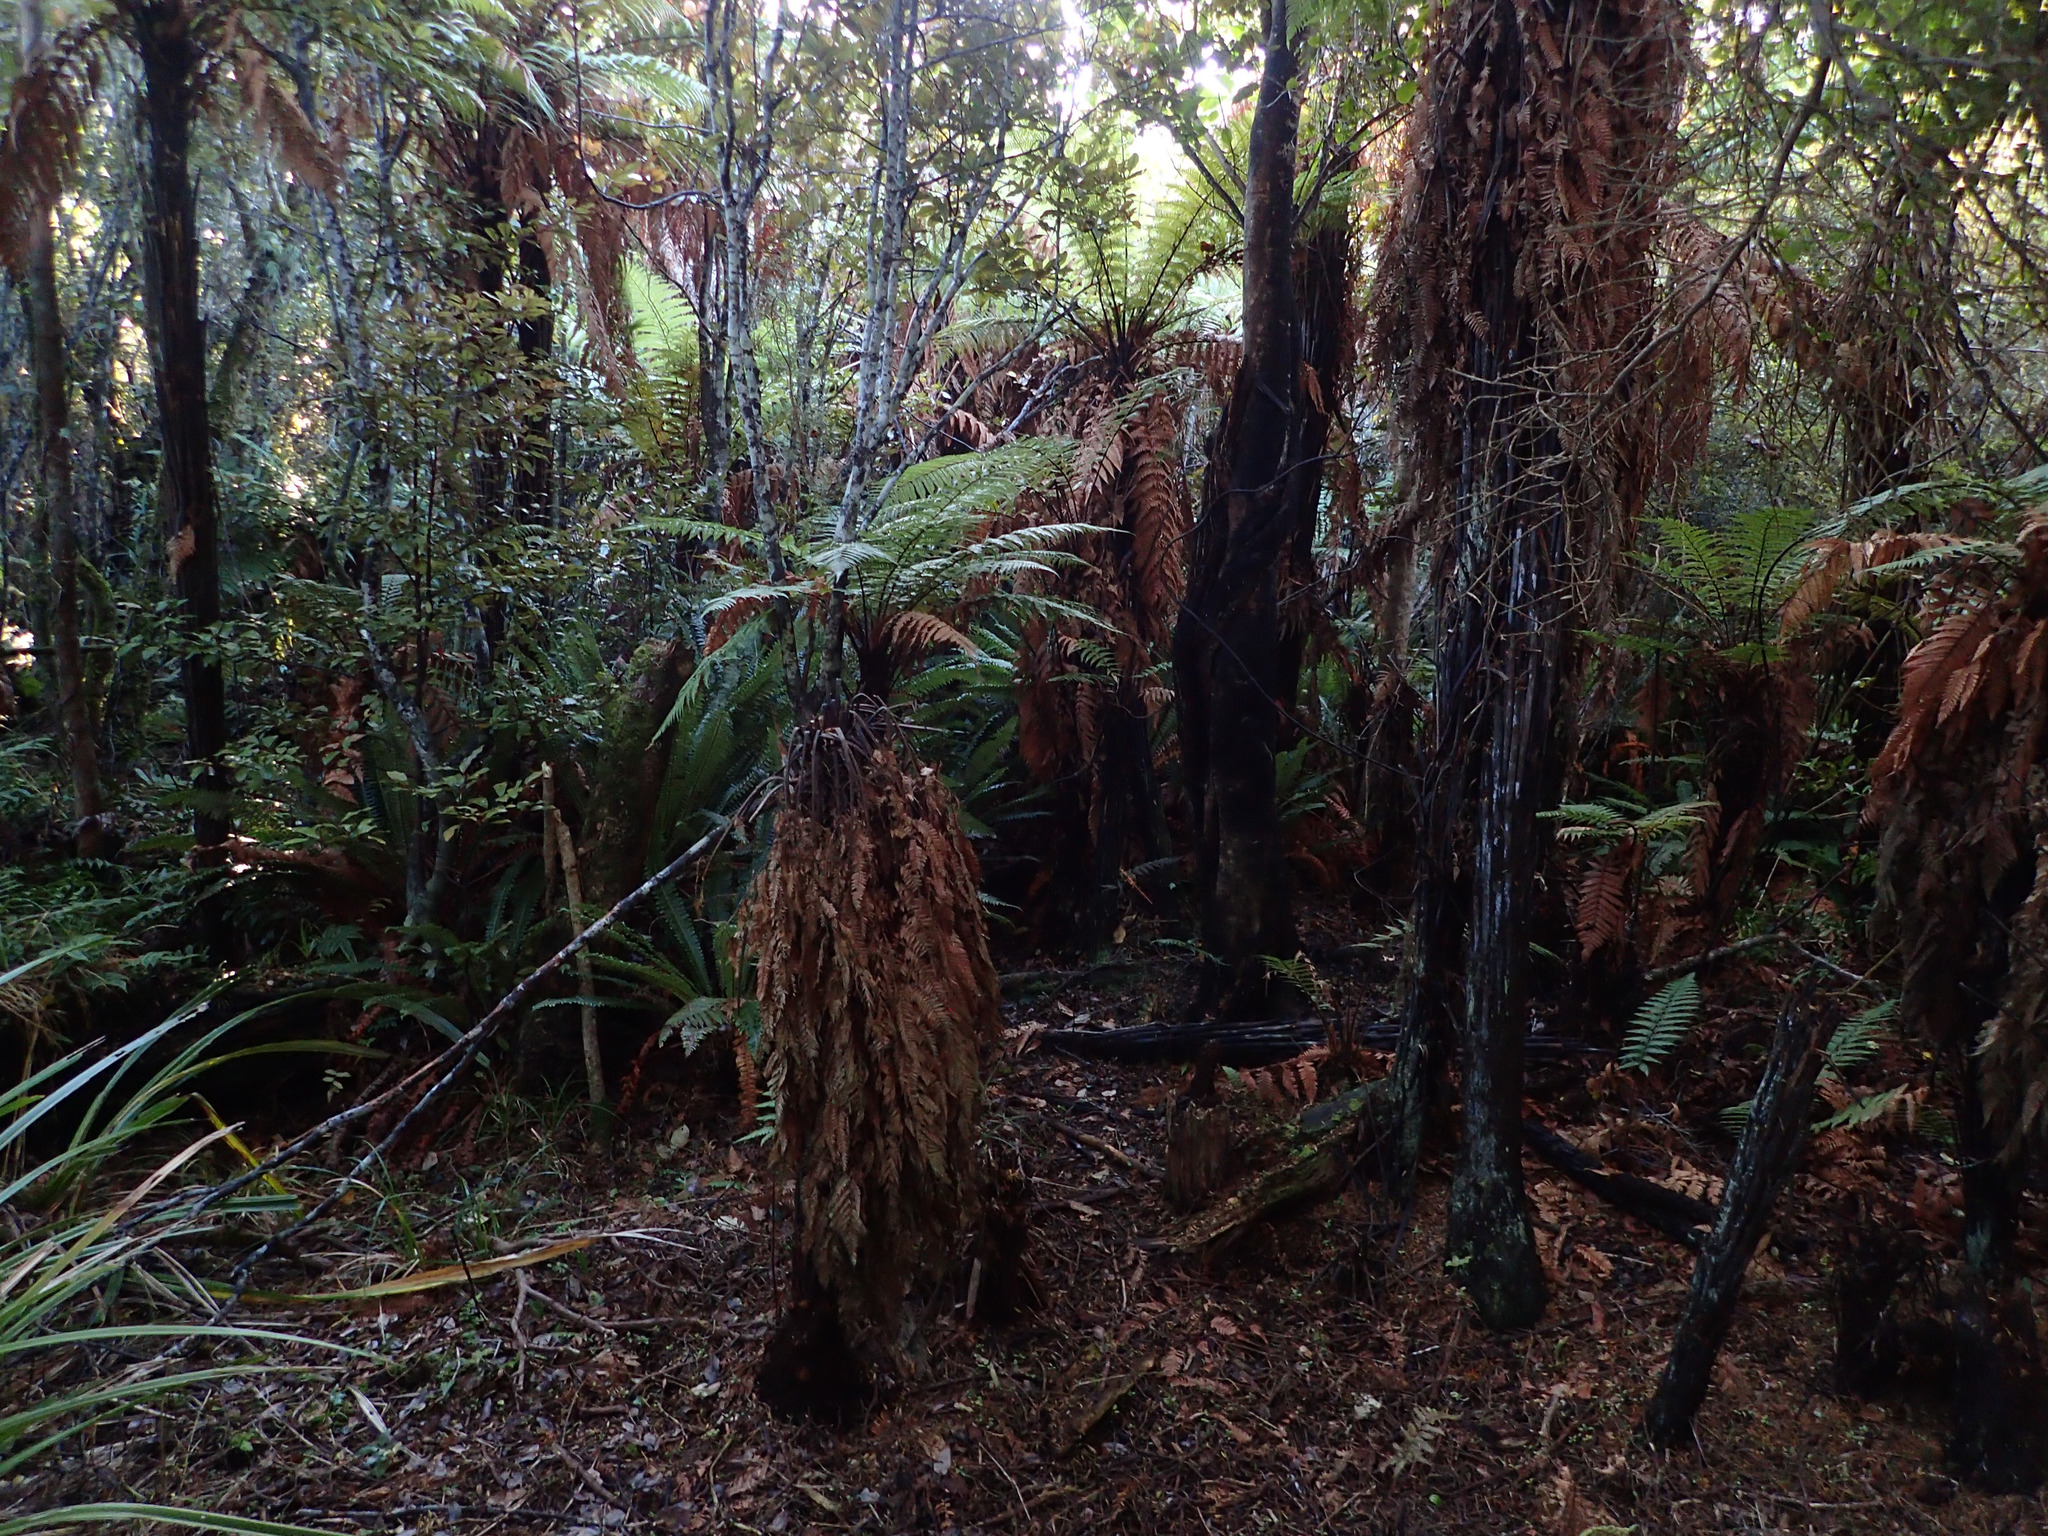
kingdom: Plantae
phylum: Tracheophyta
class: Polypodiopsida
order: Cyatheales
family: Dicksoniaceae
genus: Dicksonia
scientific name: Dicksonia squarrosa
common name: Hard treefern
